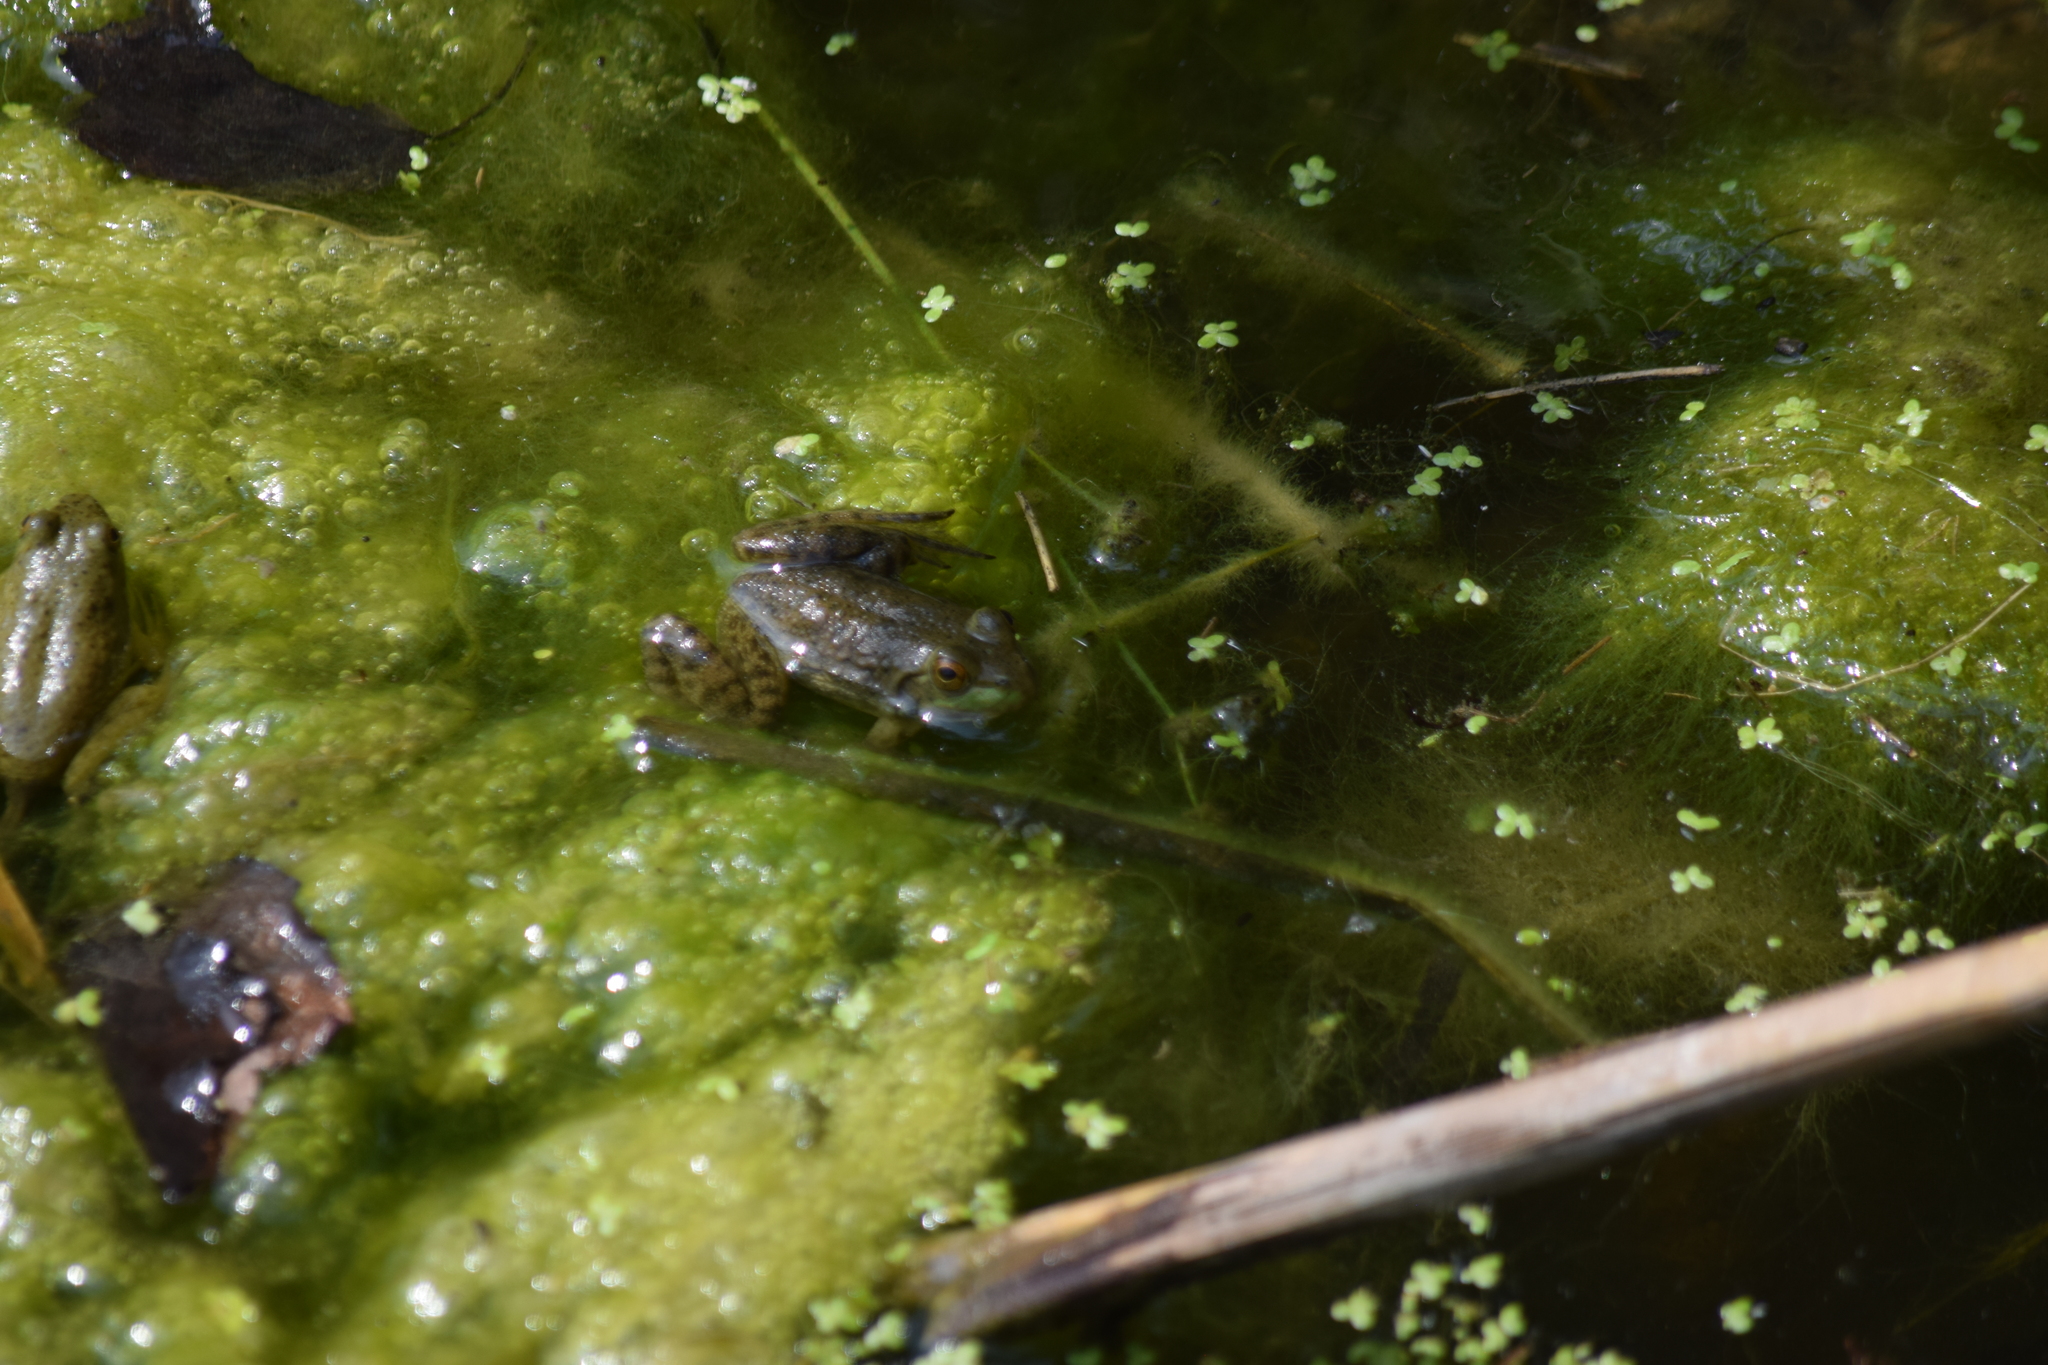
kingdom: Animalia
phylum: Chordata
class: Amphibia
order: Anura
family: Ranidae
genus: Lithobates
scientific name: Lithobates catesbeianus
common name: American bullfrog
